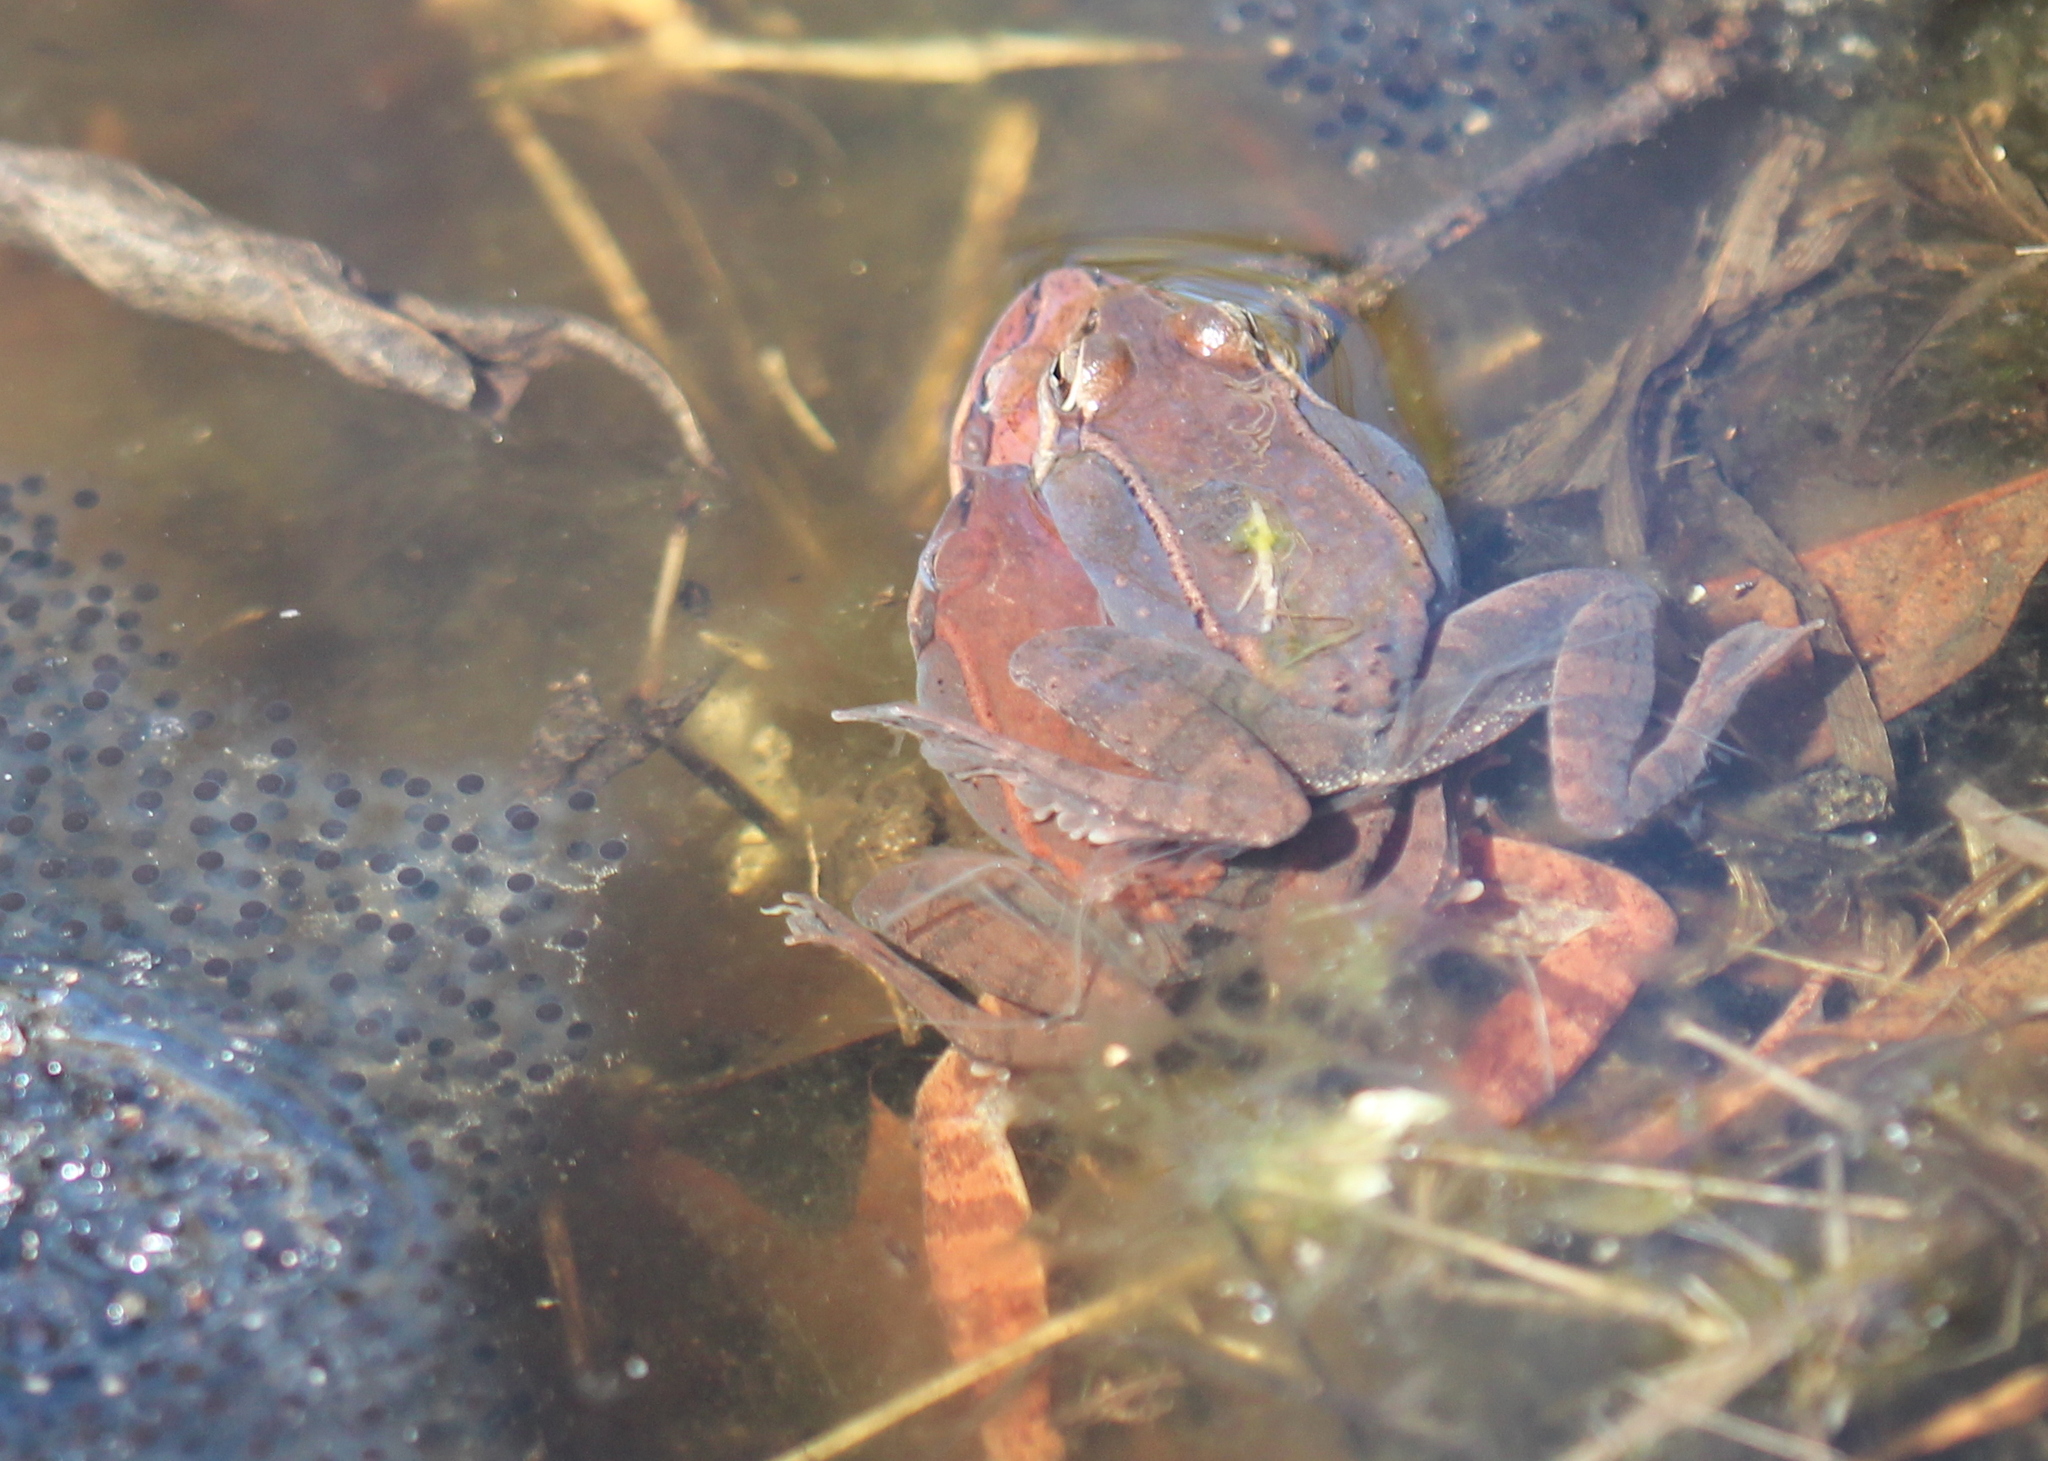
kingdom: Animalia
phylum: Chordata
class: Amphibia
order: Anura
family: Ranidae
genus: Lithobates
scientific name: Lithobates sylvaticus
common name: Wood frog
